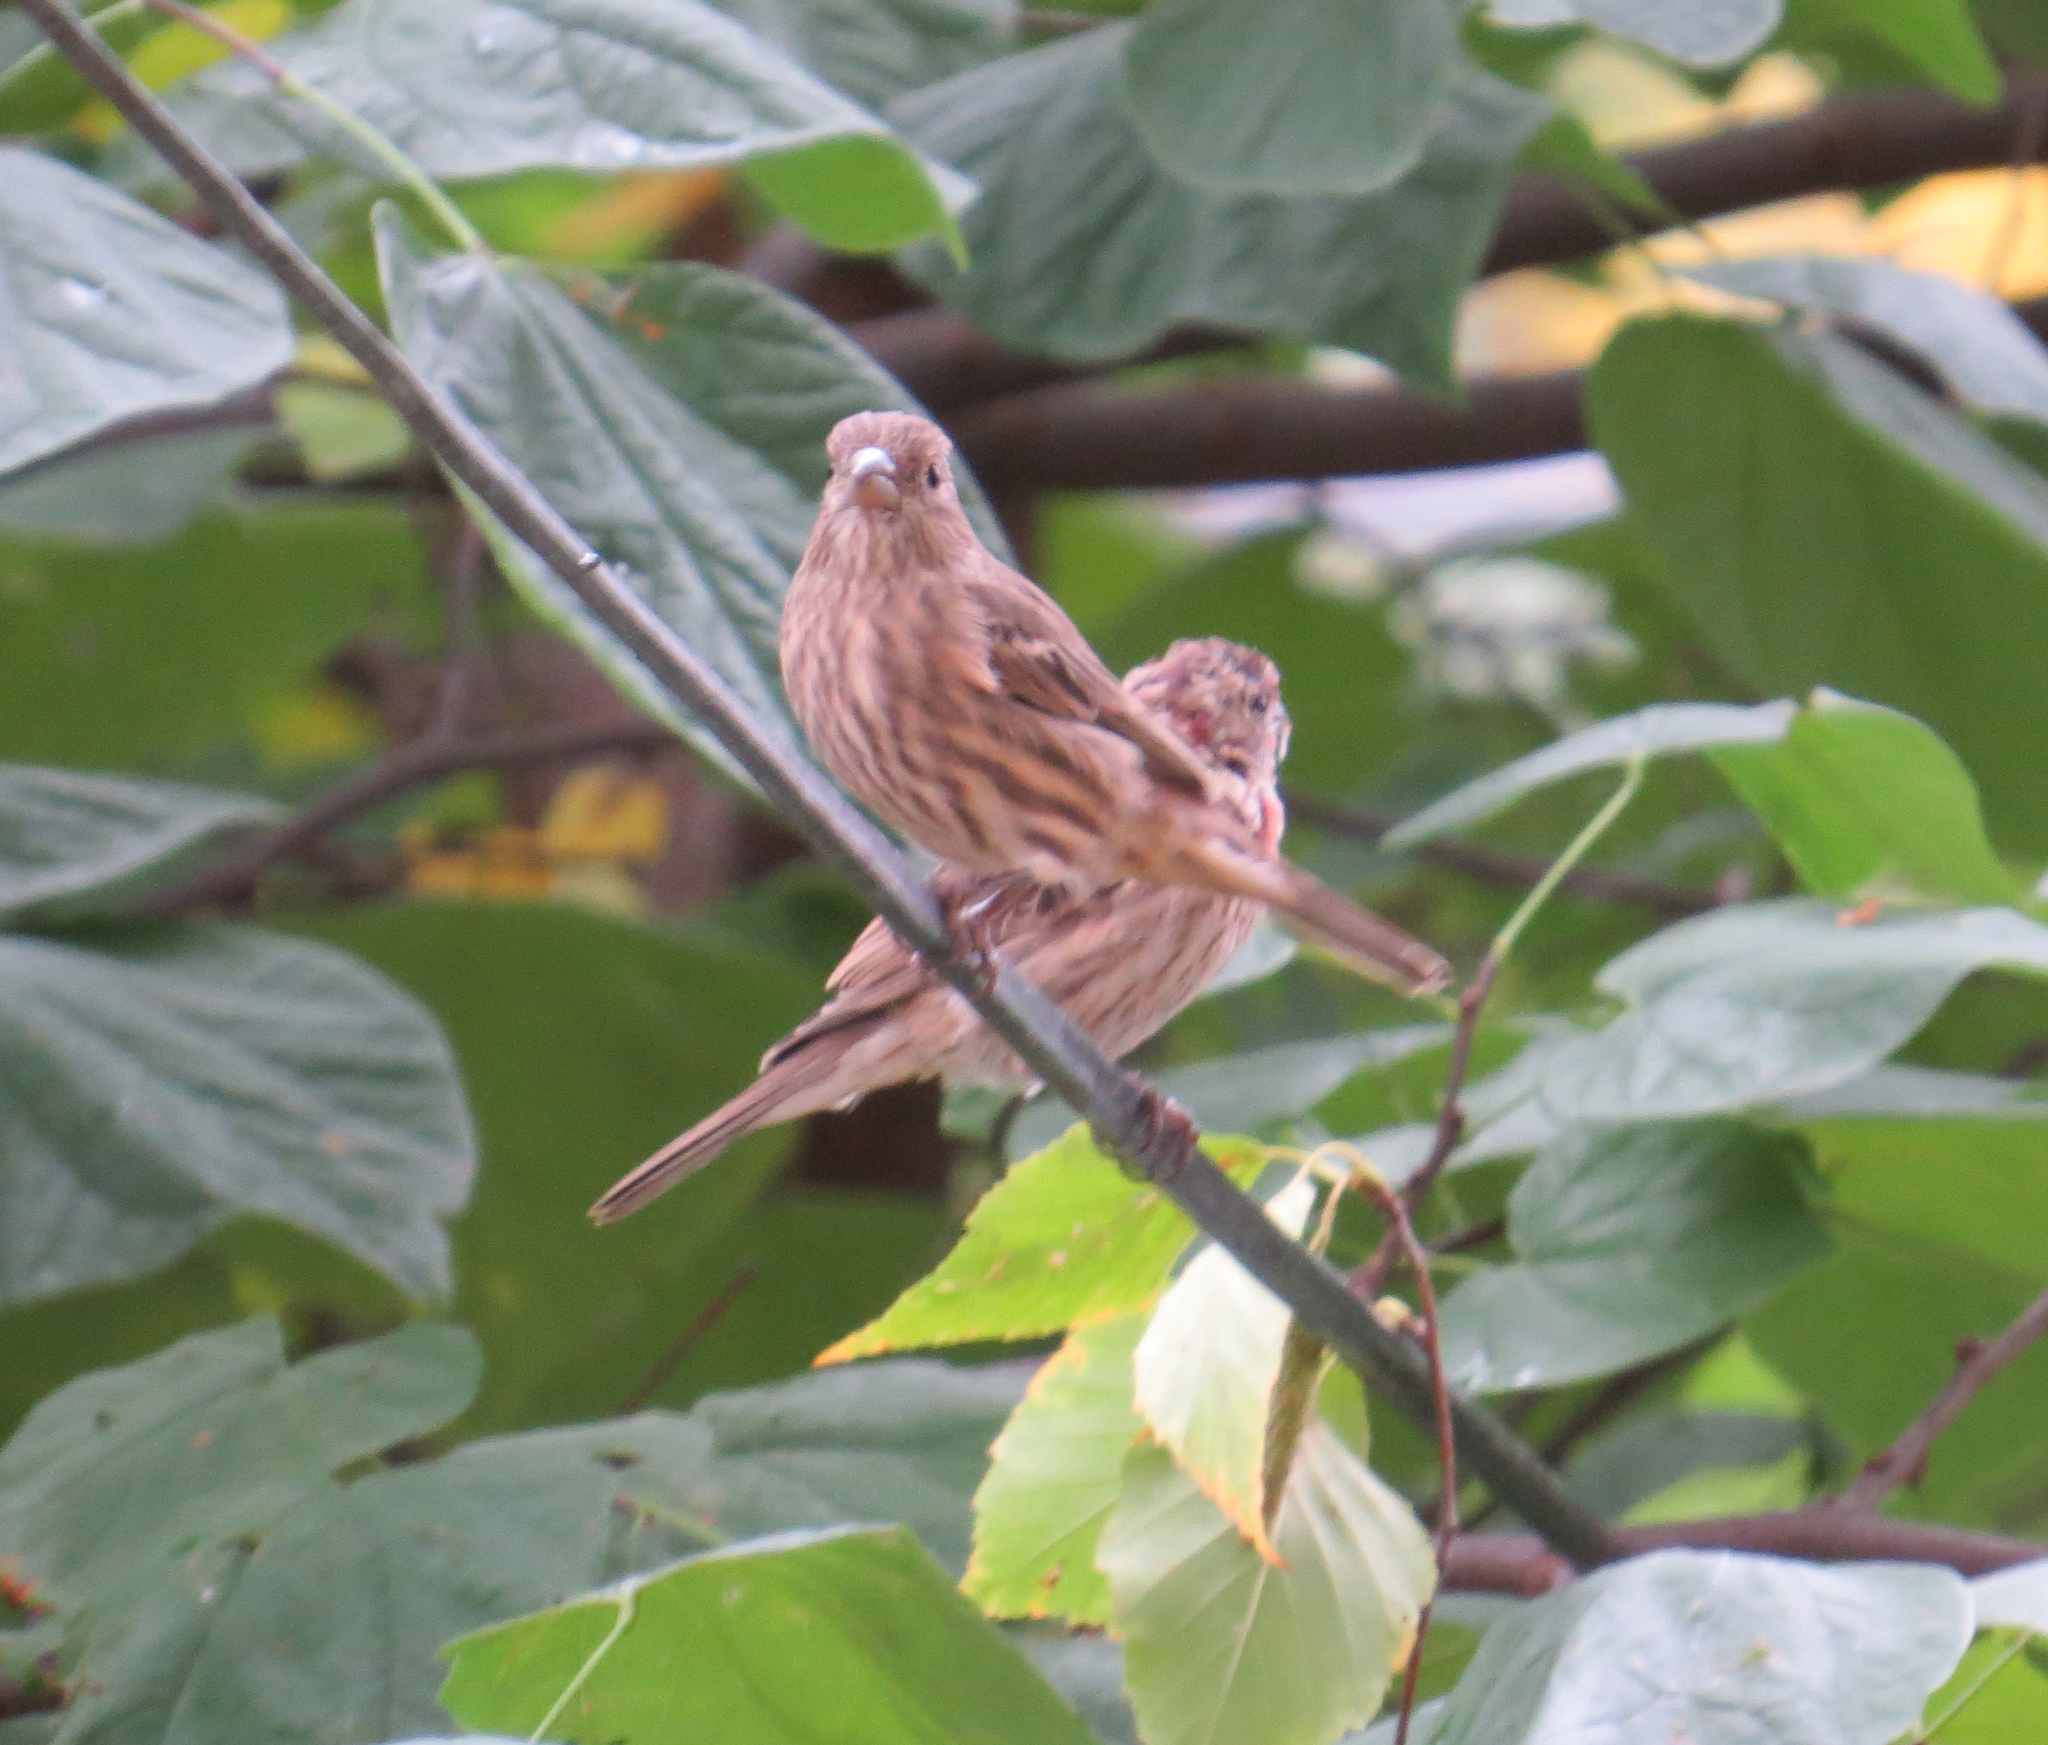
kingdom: Animalia
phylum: Chordata
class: Aves
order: Passeriformes
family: Fringillidae
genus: Haemorhous
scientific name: Haemorhous mexicanus
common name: House finch
